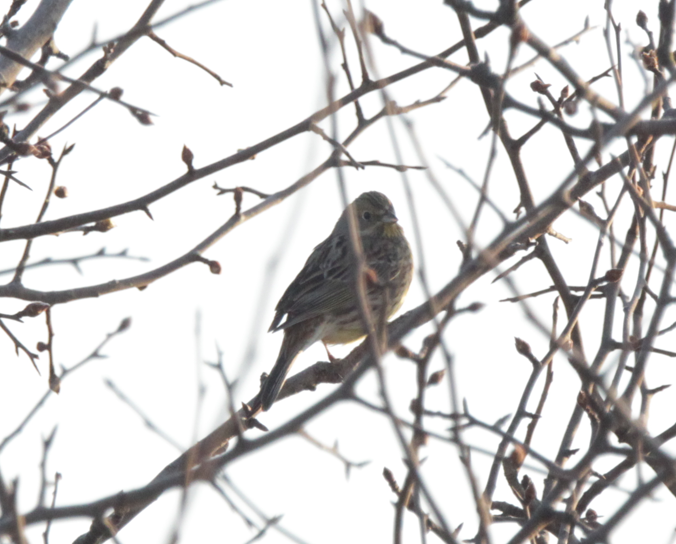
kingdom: Animalia
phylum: Chordata
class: Aves
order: Passeriformes
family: Emberizidae
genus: Emberiza
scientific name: Emberiza citrinella
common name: Yellowhammer
